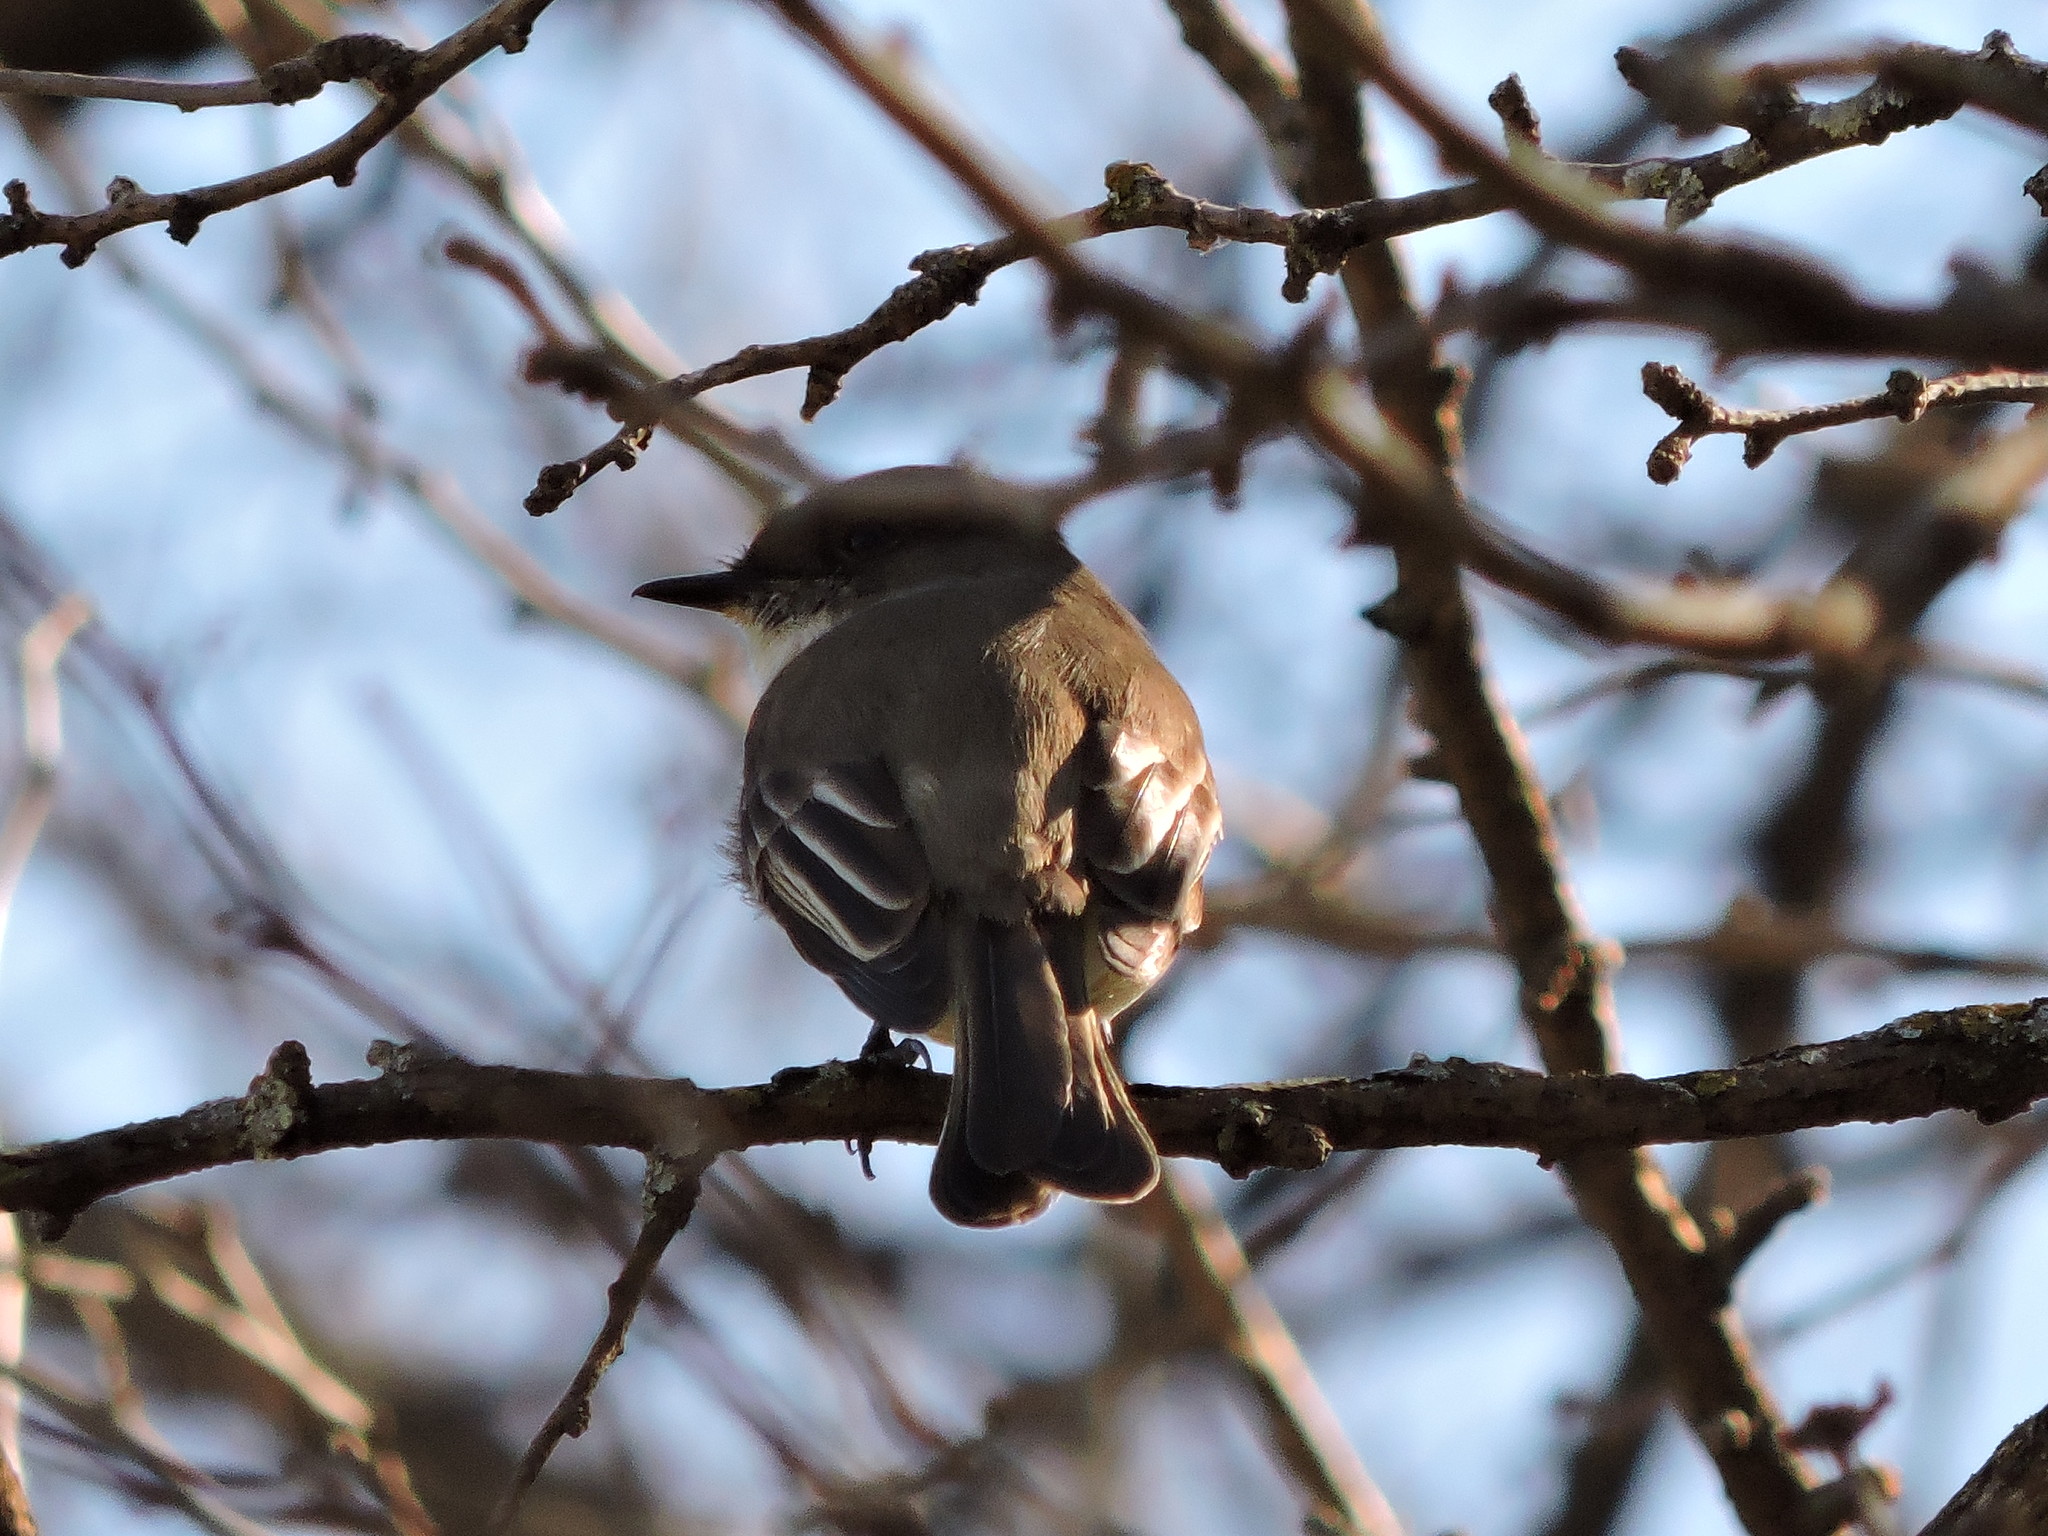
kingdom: Animalia
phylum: Chordata
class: Aves
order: Passeriformes
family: Tyrannidae
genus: Sayornis
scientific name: Sayornis phoebe
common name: Eastern phoebe
